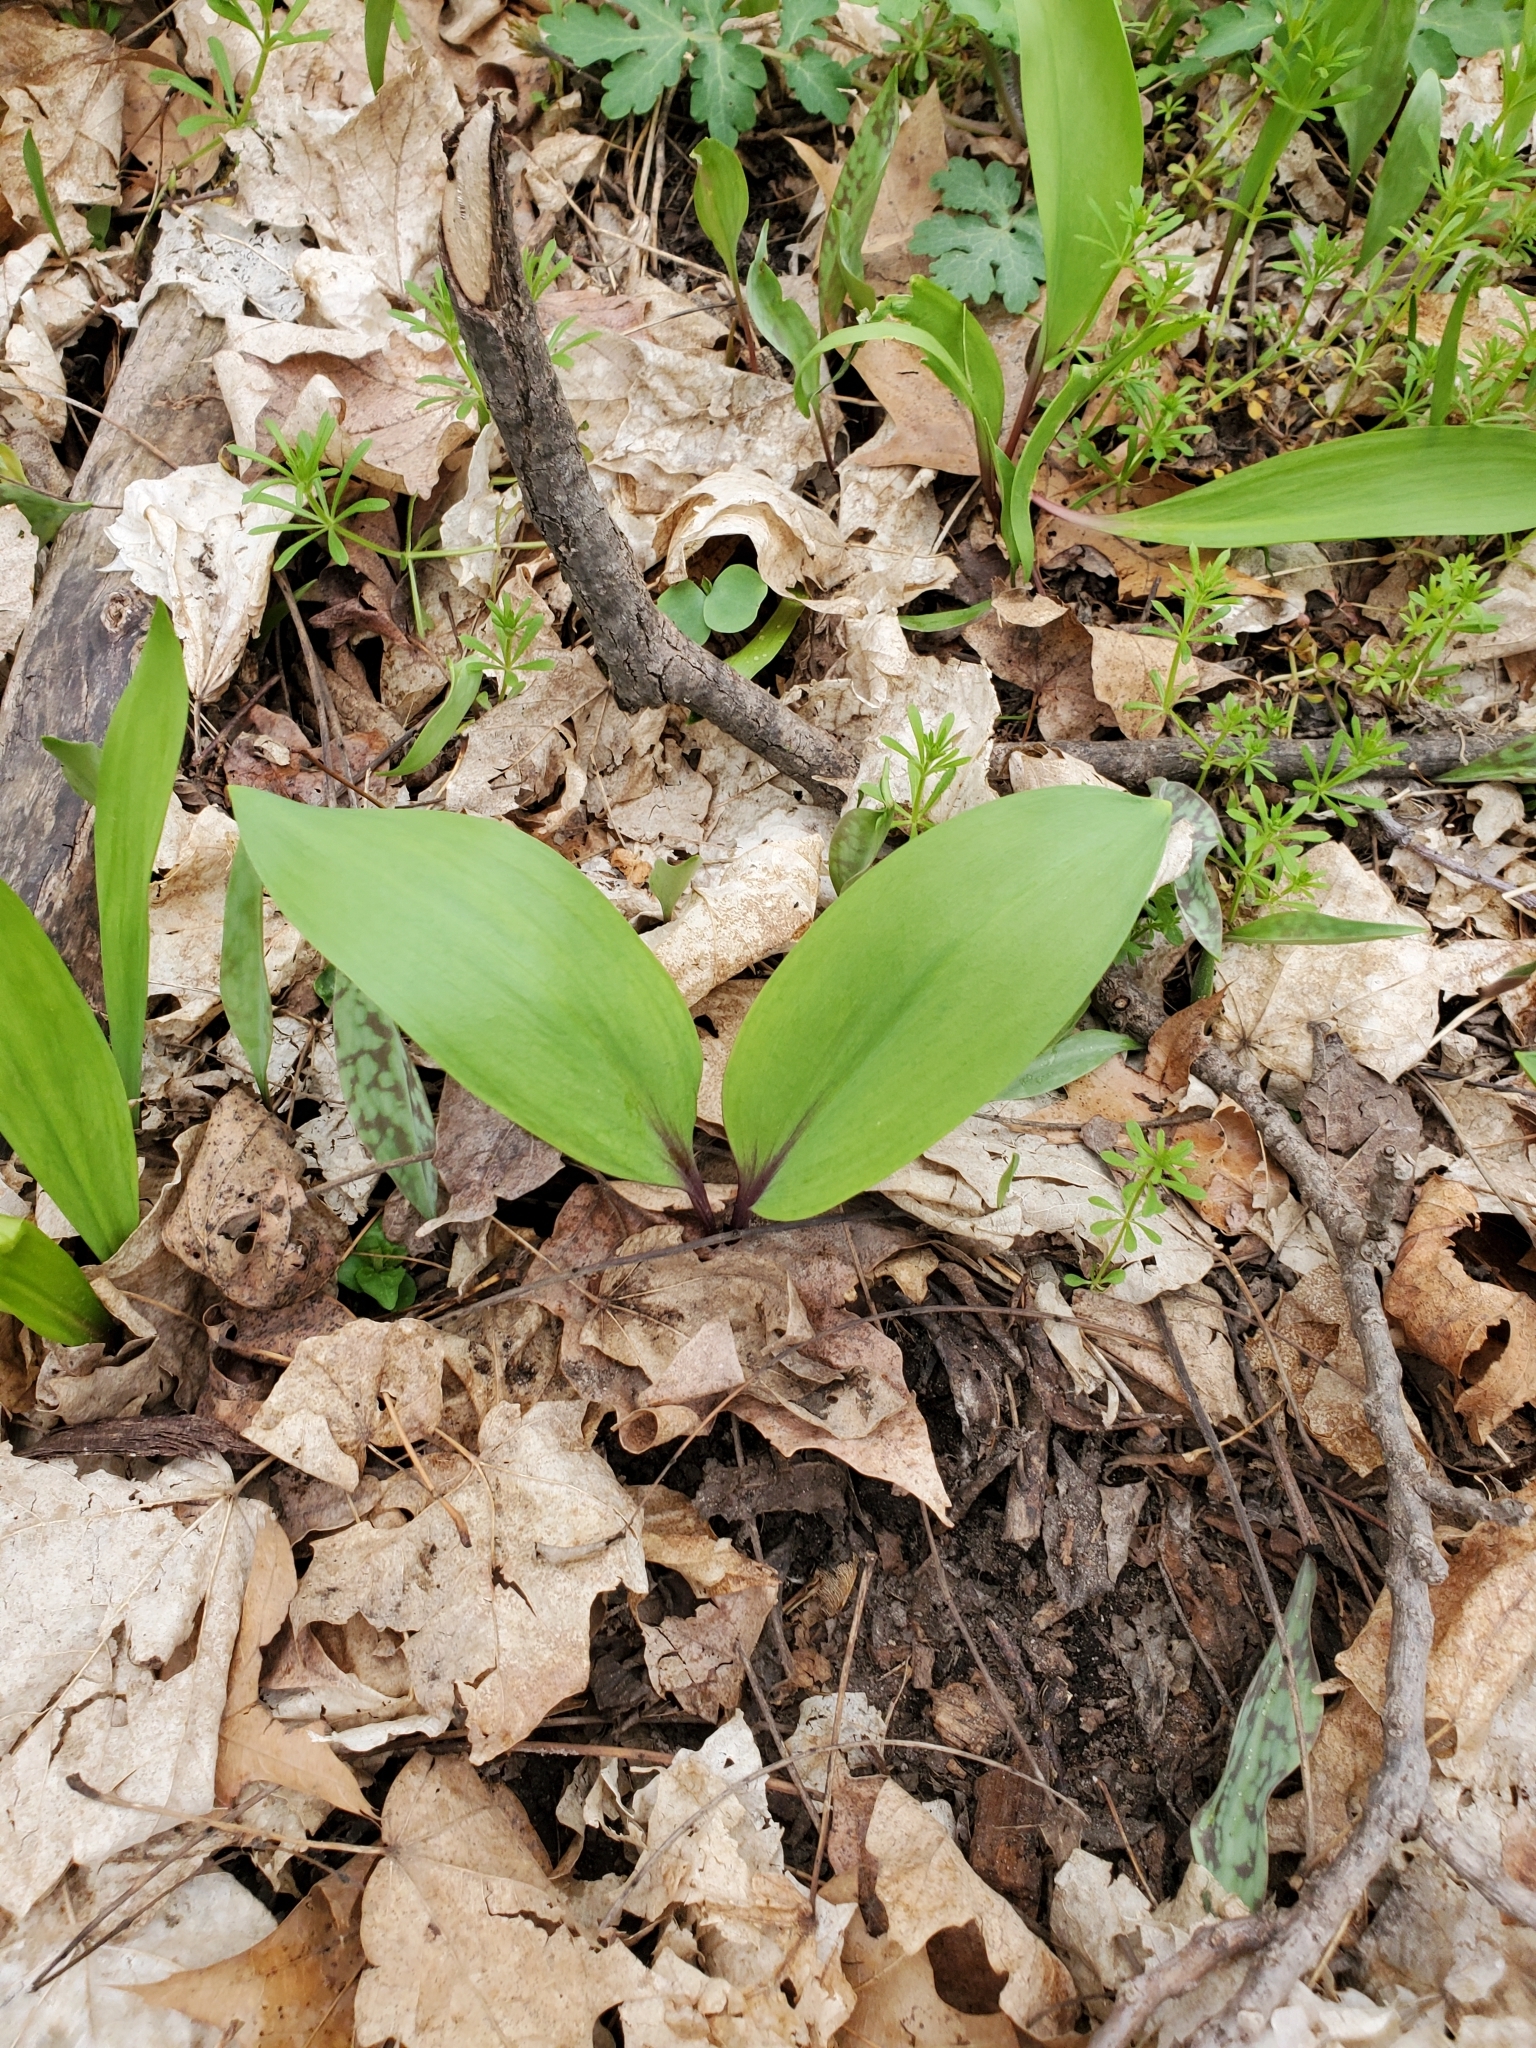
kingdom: Plantae
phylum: Tracheophyta
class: Liliopsida
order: Asparagales
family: Amaryllidaceae
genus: Allium
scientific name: Allium tricoccum
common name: Ramp
